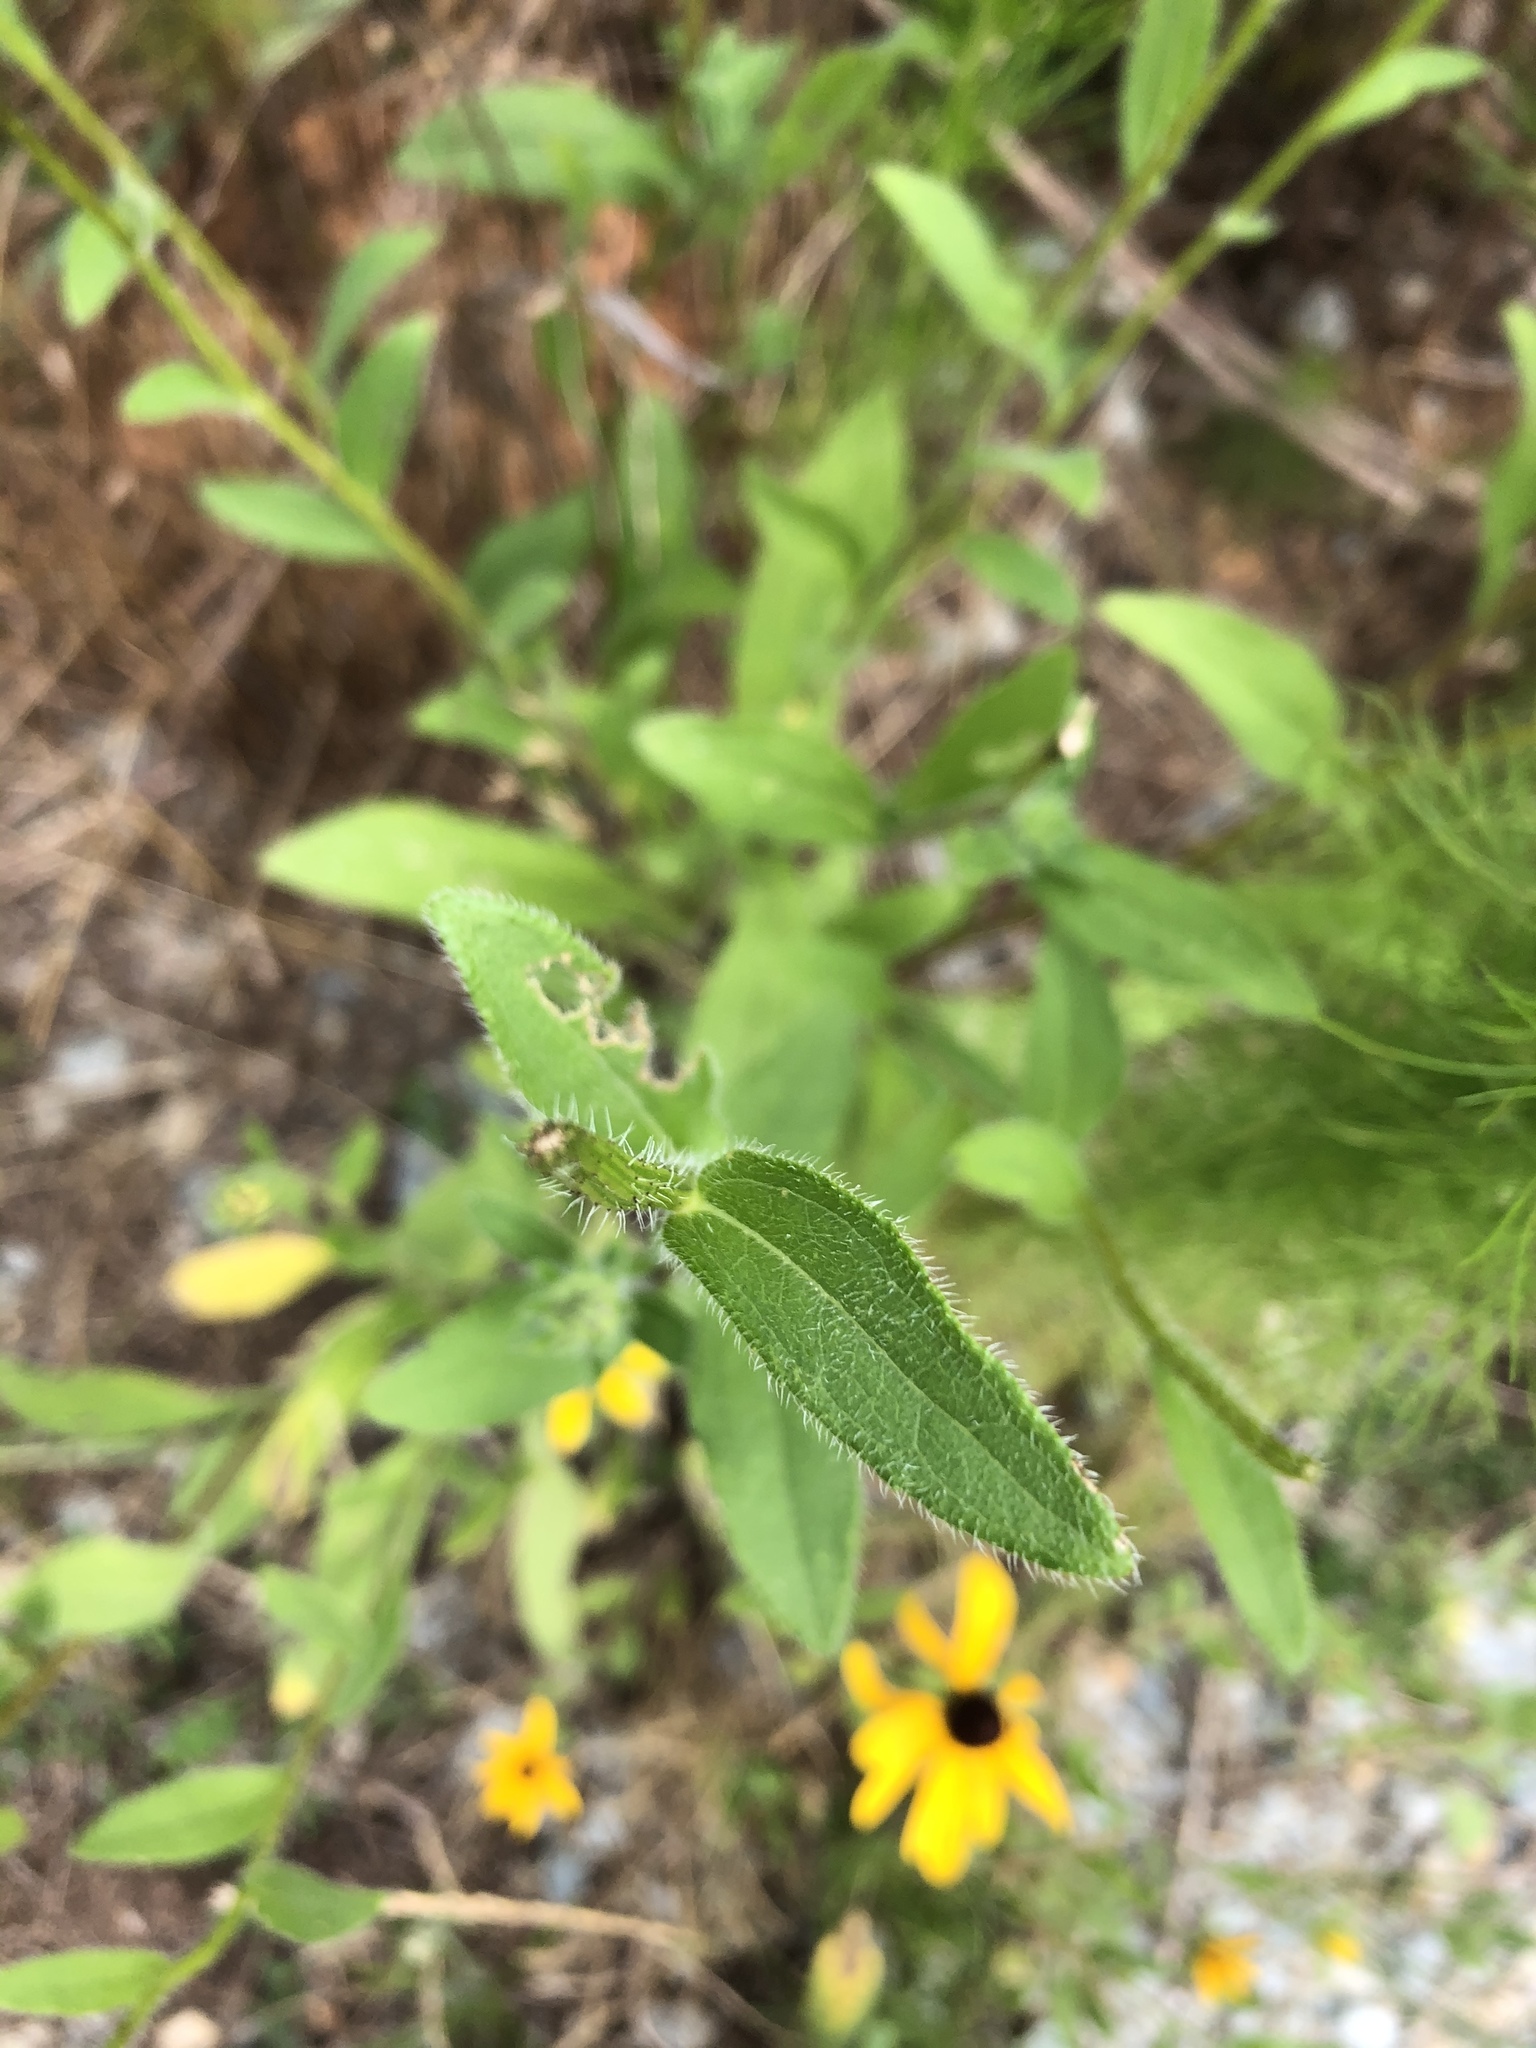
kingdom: Plantae
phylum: Tracheophyta
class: Magnoliopsida
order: Asterales
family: Asteraceae
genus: Rudbeckia
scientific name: Rudbeckia hirta
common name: Black-eyed-susan
